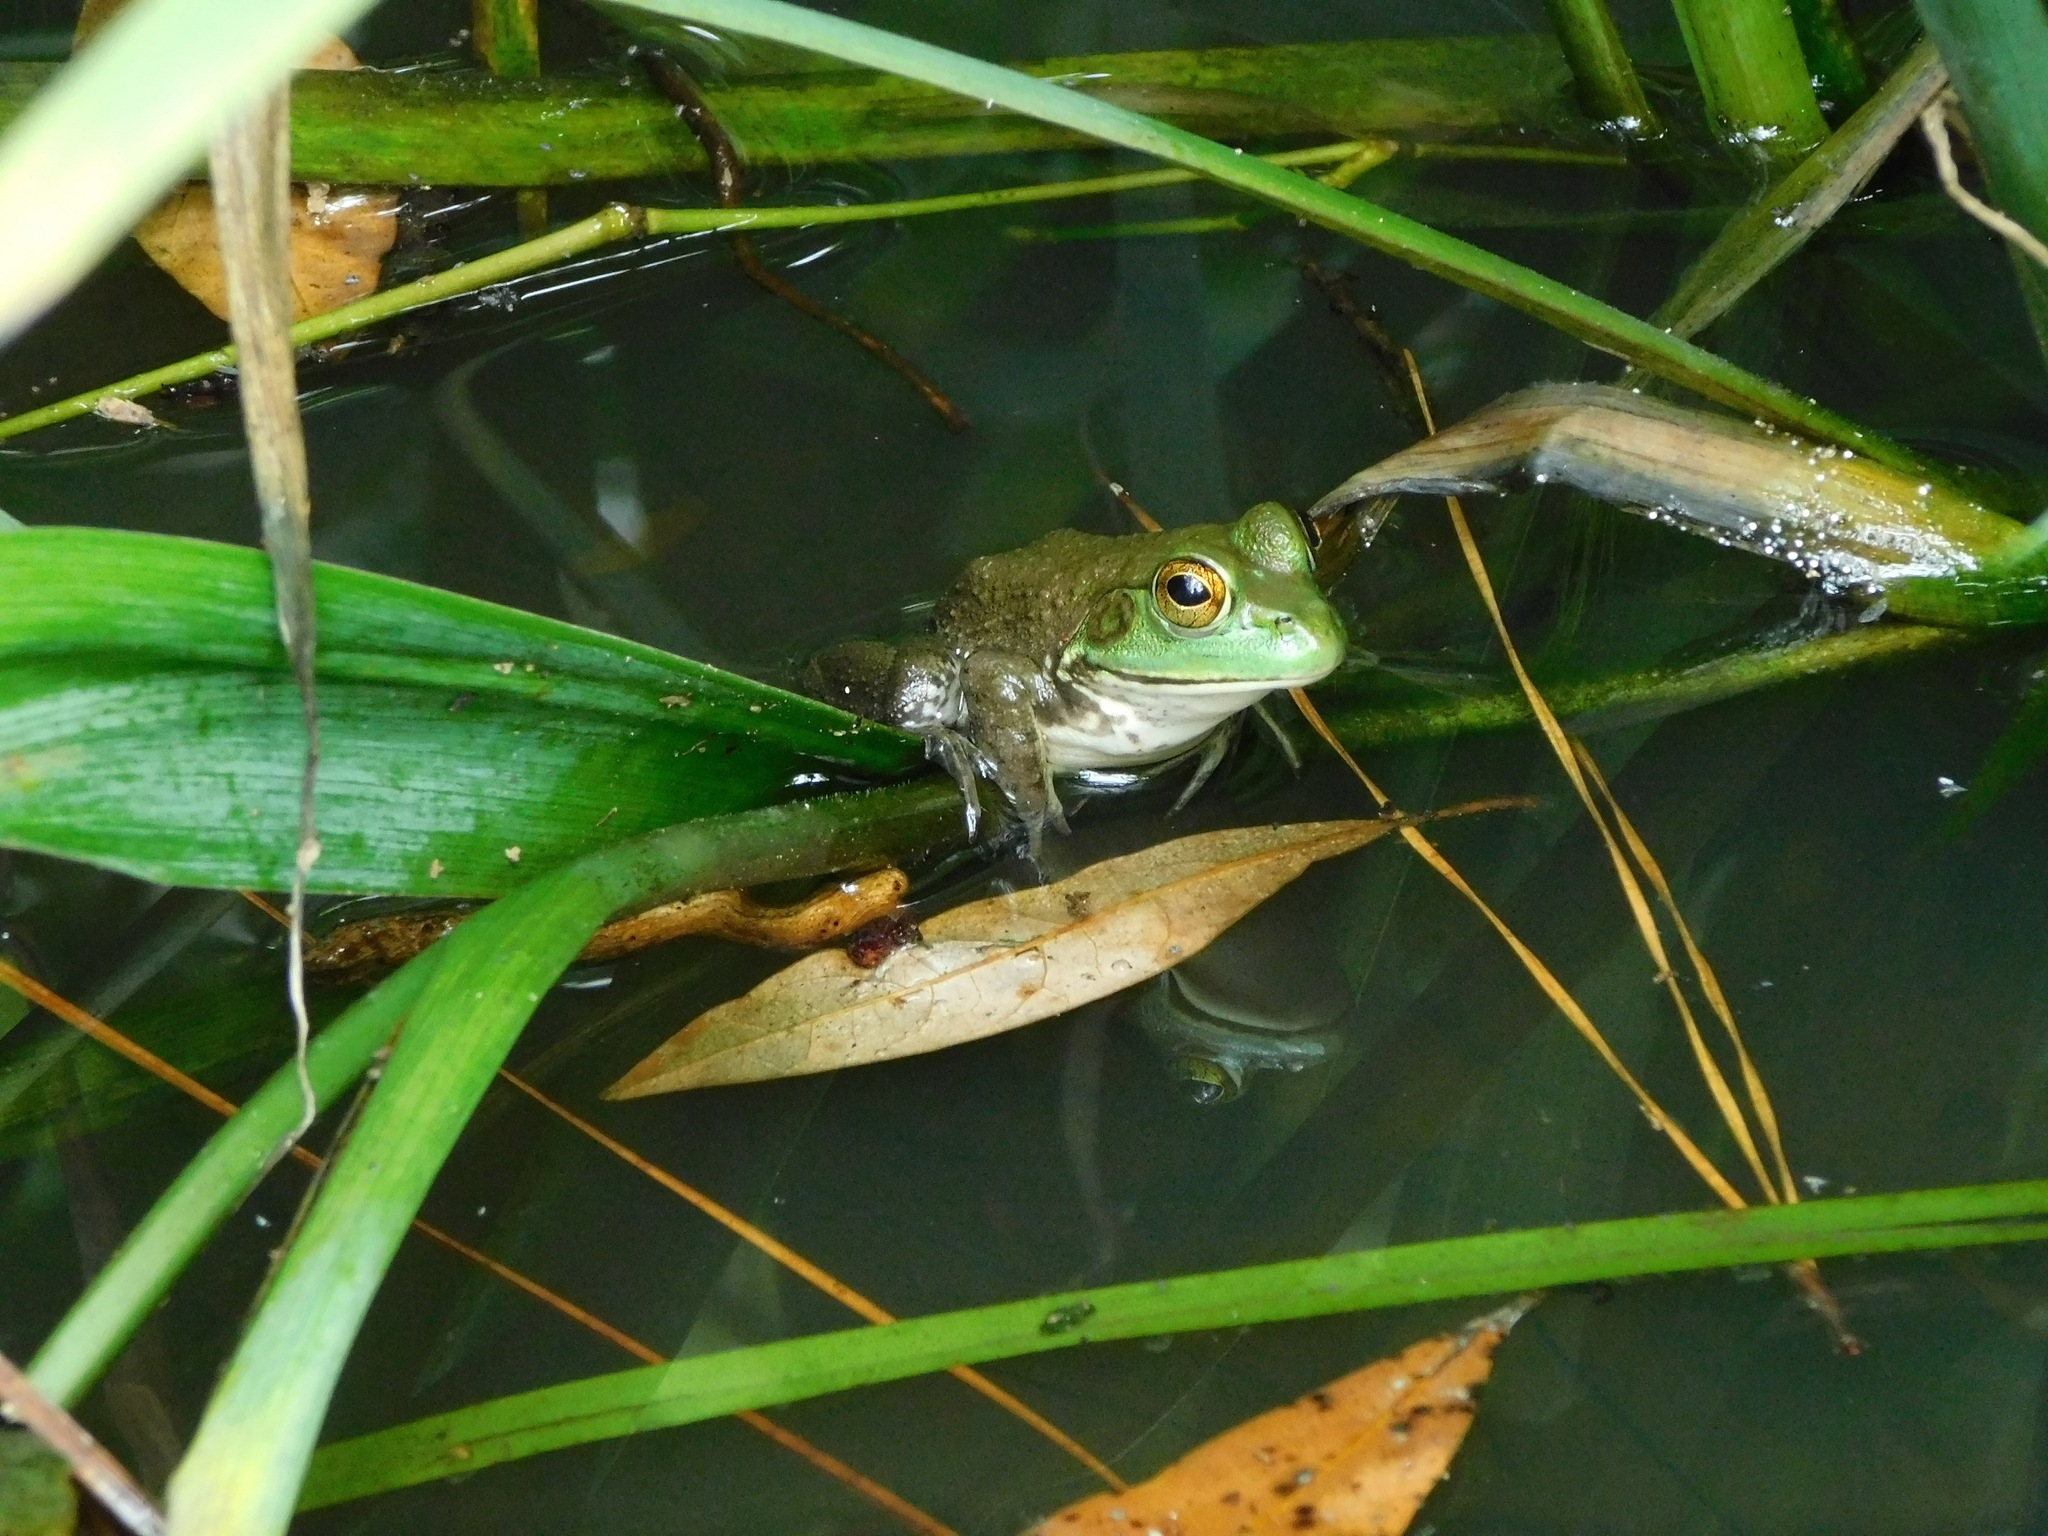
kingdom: Animalia
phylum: Chordata
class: Amphibia
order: Anura
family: Ranidae
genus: Lithobates
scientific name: Lithobates catesbeianus
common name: American bullfrog
